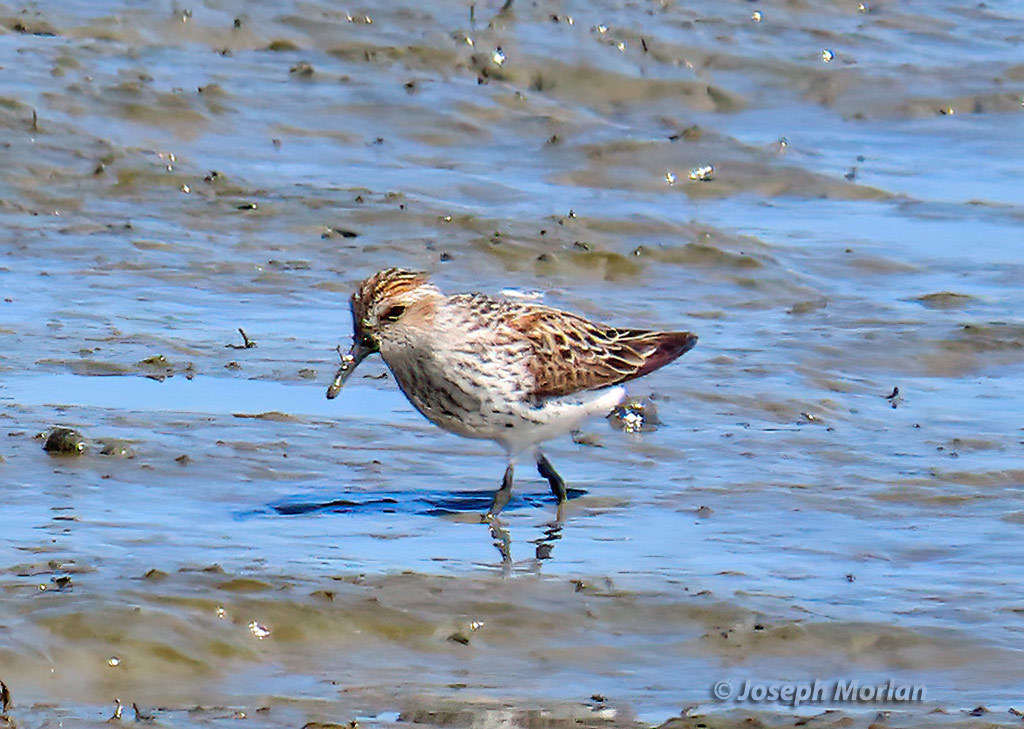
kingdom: Animalia
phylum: Chordata
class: Aves
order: Charadriiformes
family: Scolopacidae
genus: Calidris
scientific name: Calidris mauri
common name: Western sandpiper
